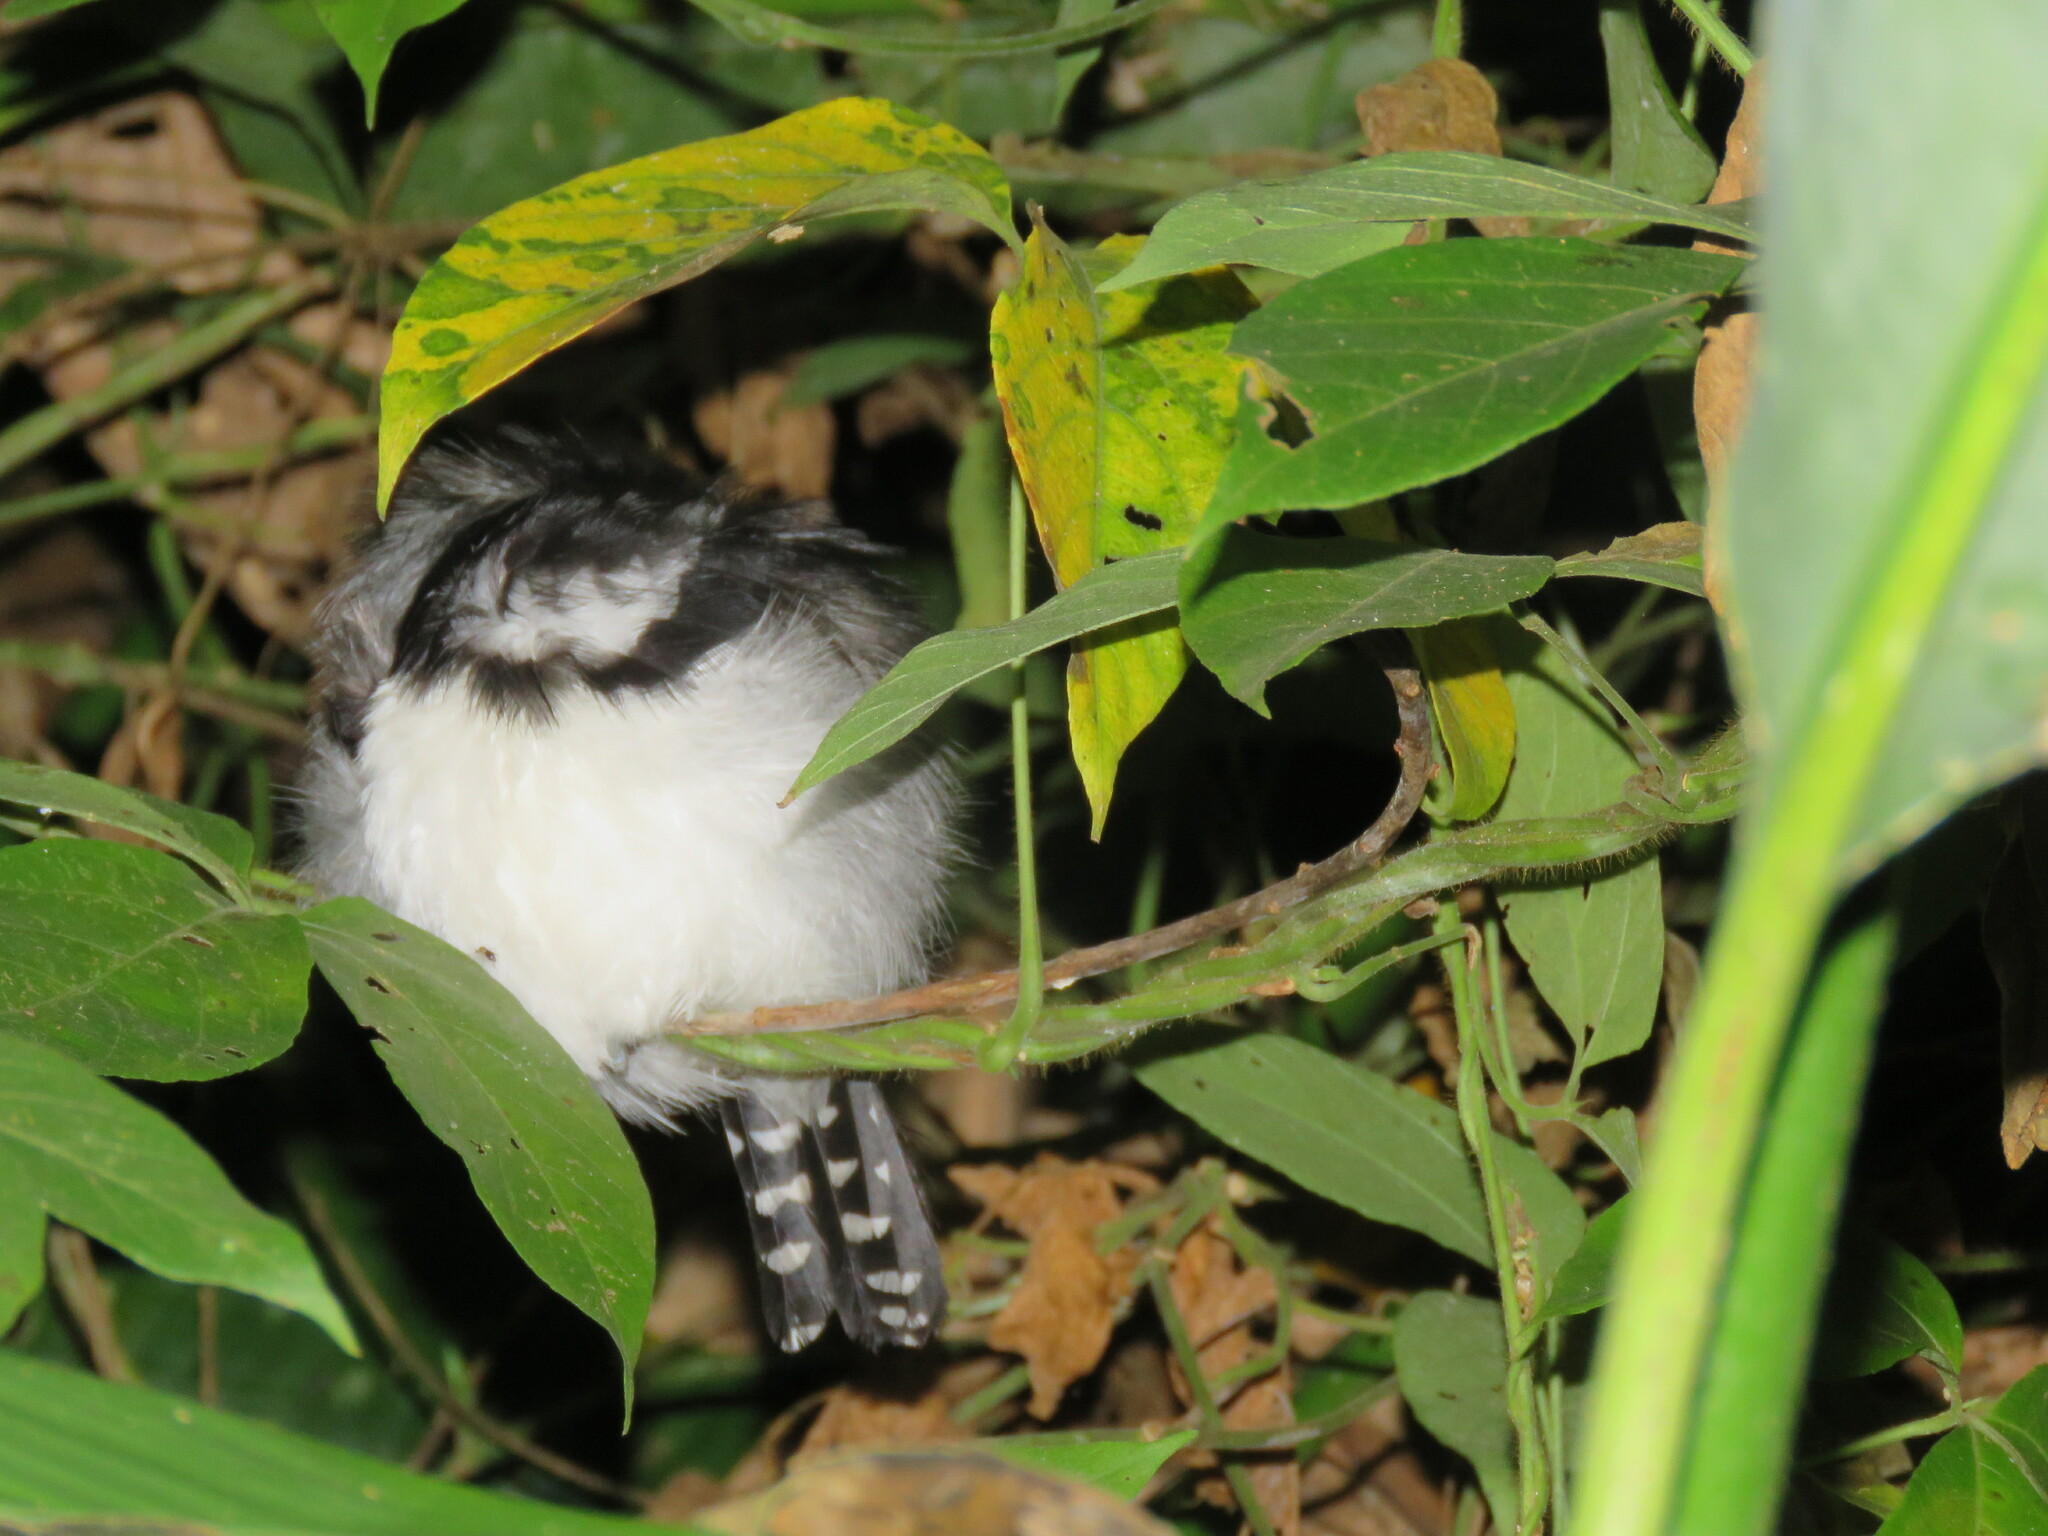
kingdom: Animalia
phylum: Chordata
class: Aves
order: Passeriformes
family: Thamnophilidae
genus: Taraba
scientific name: Taraba major
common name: Great antshrike
